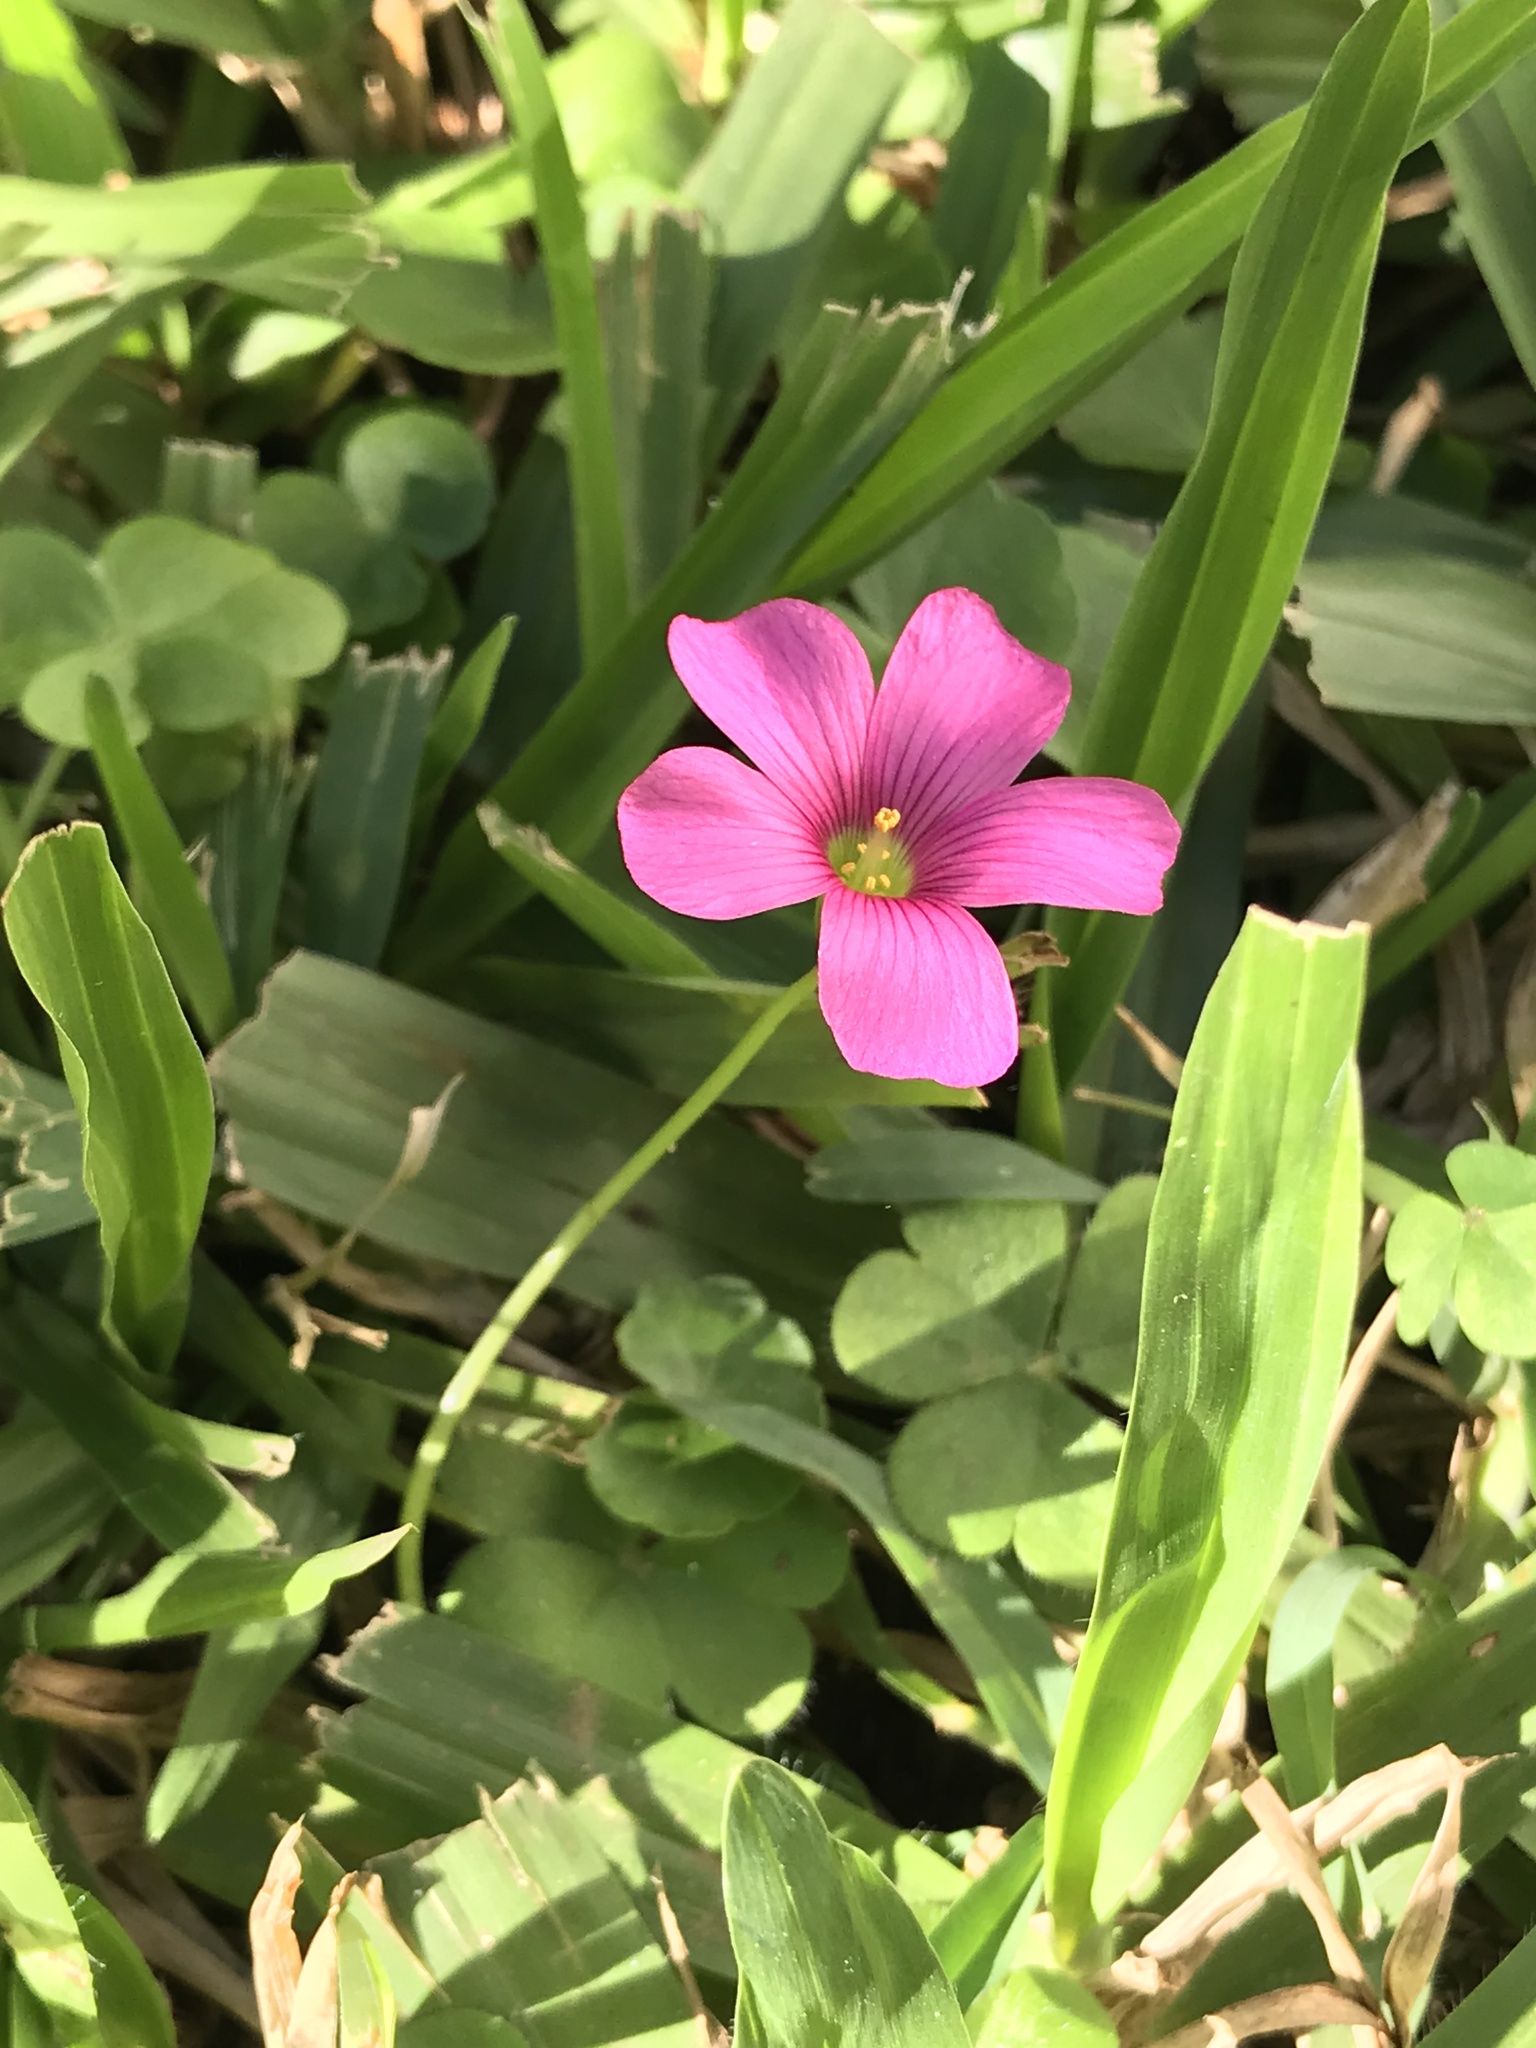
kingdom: Plantae
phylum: Tracheophyta
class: Magnoliopsida
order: Oxalidales
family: Oxalidaceae
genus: Oxalis
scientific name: Oxalis hispidula
